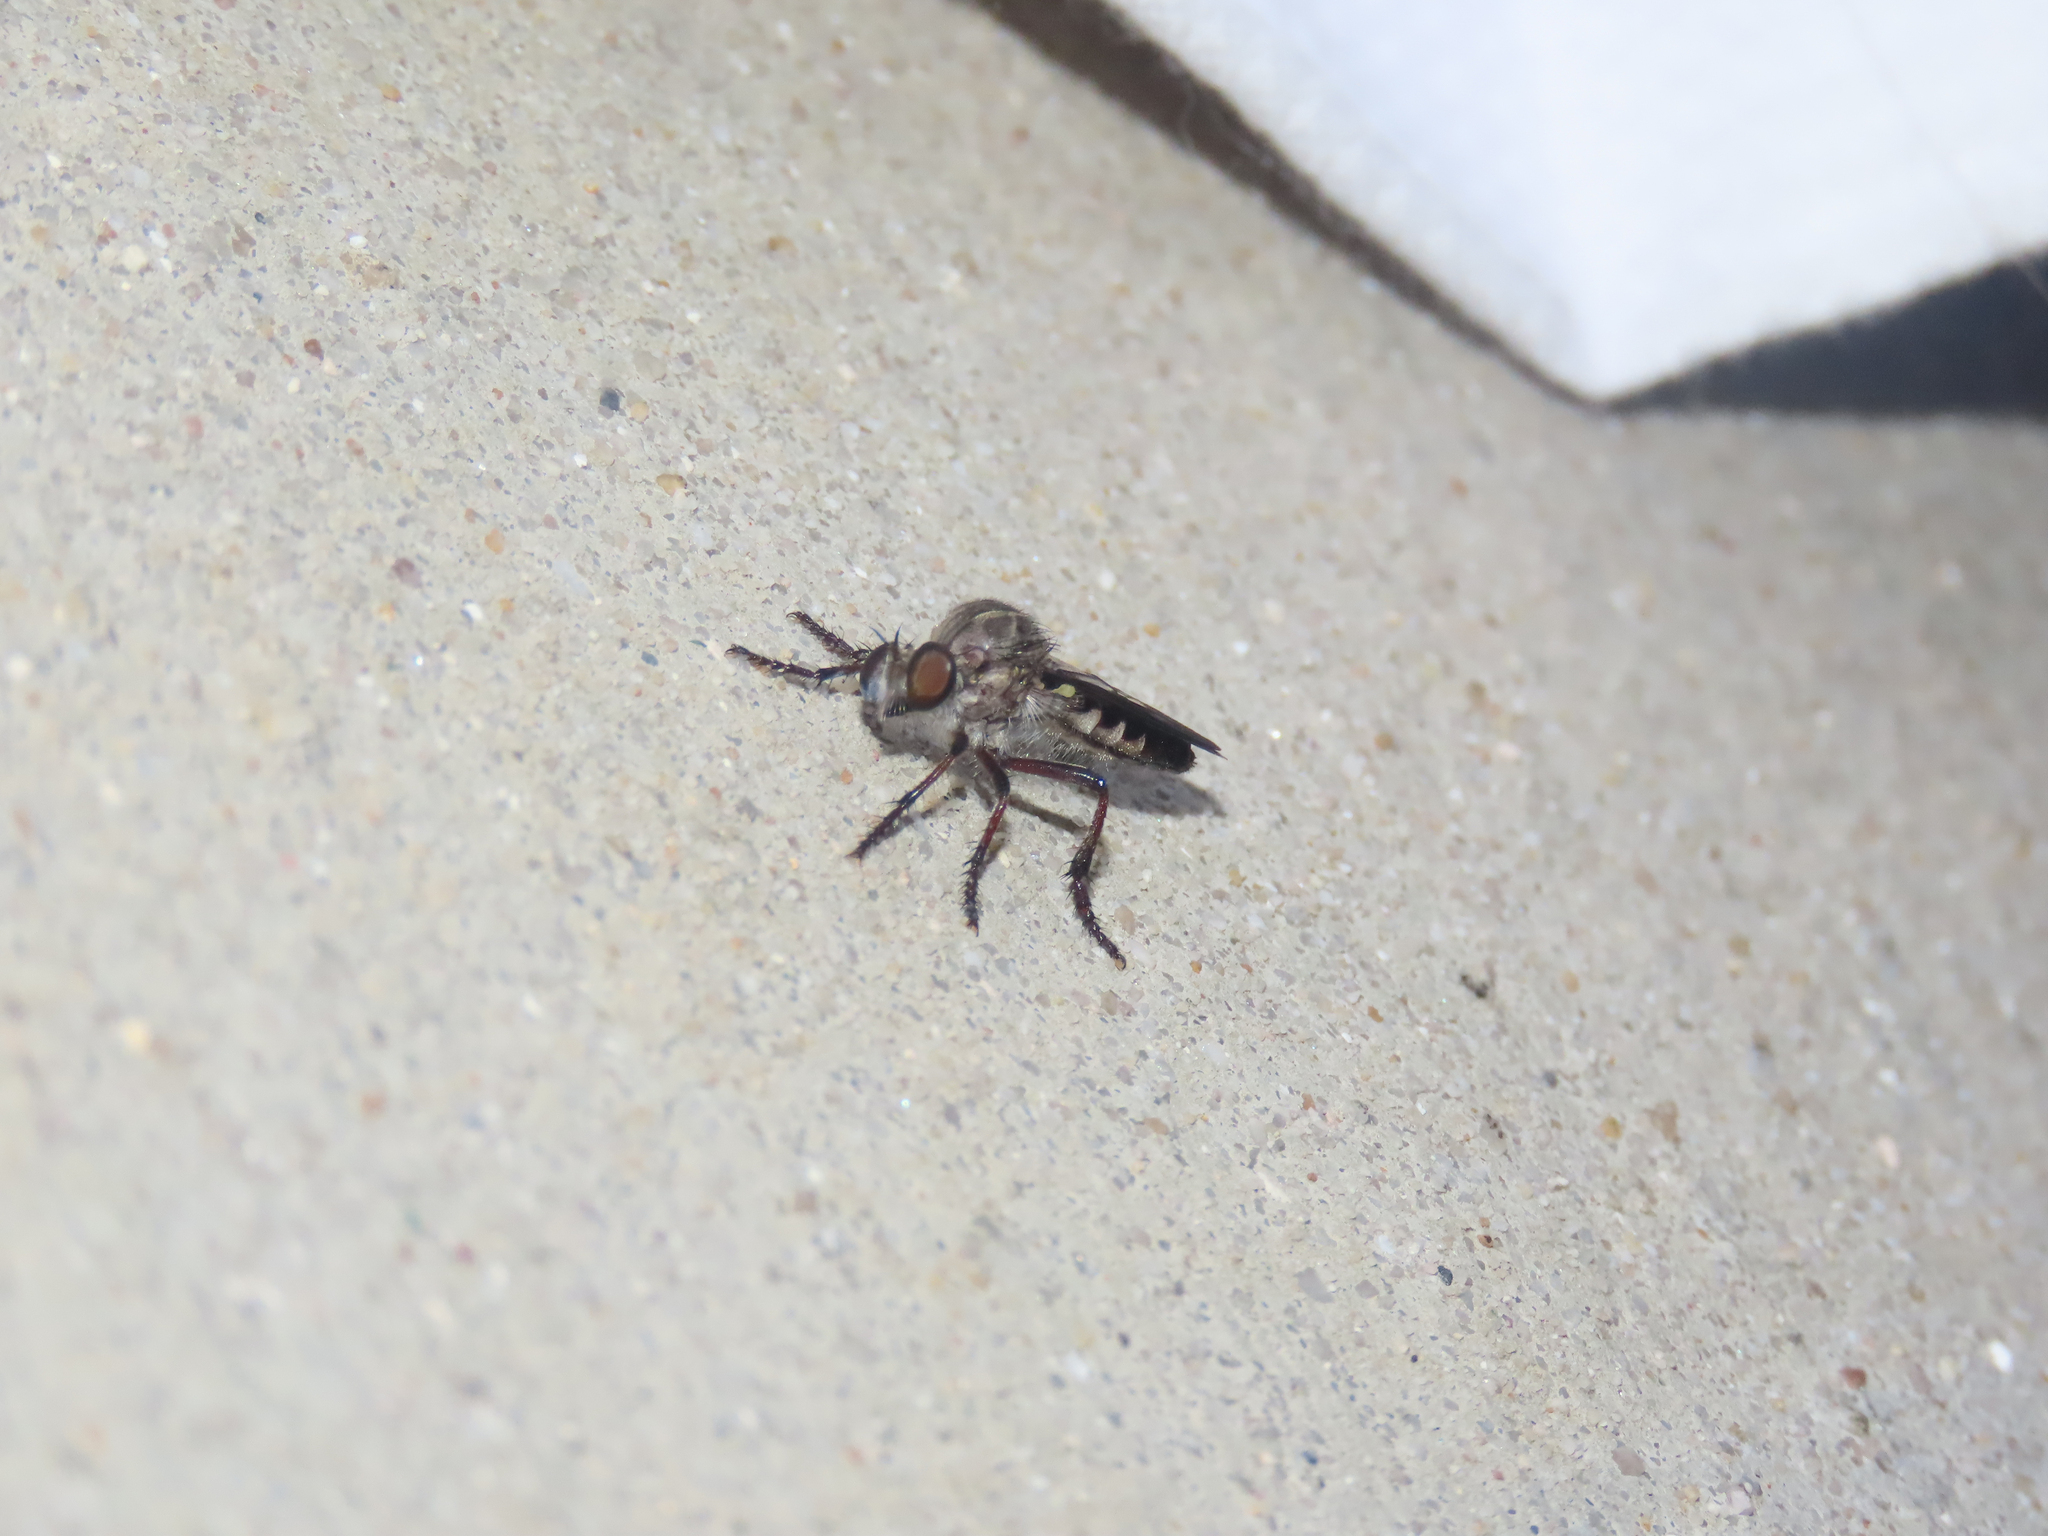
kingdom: Animalia
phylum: Arthropoda
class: Insecta
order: Diptera
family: Asilidae
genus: Heteropogon
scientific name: Heteropogon macerinus
